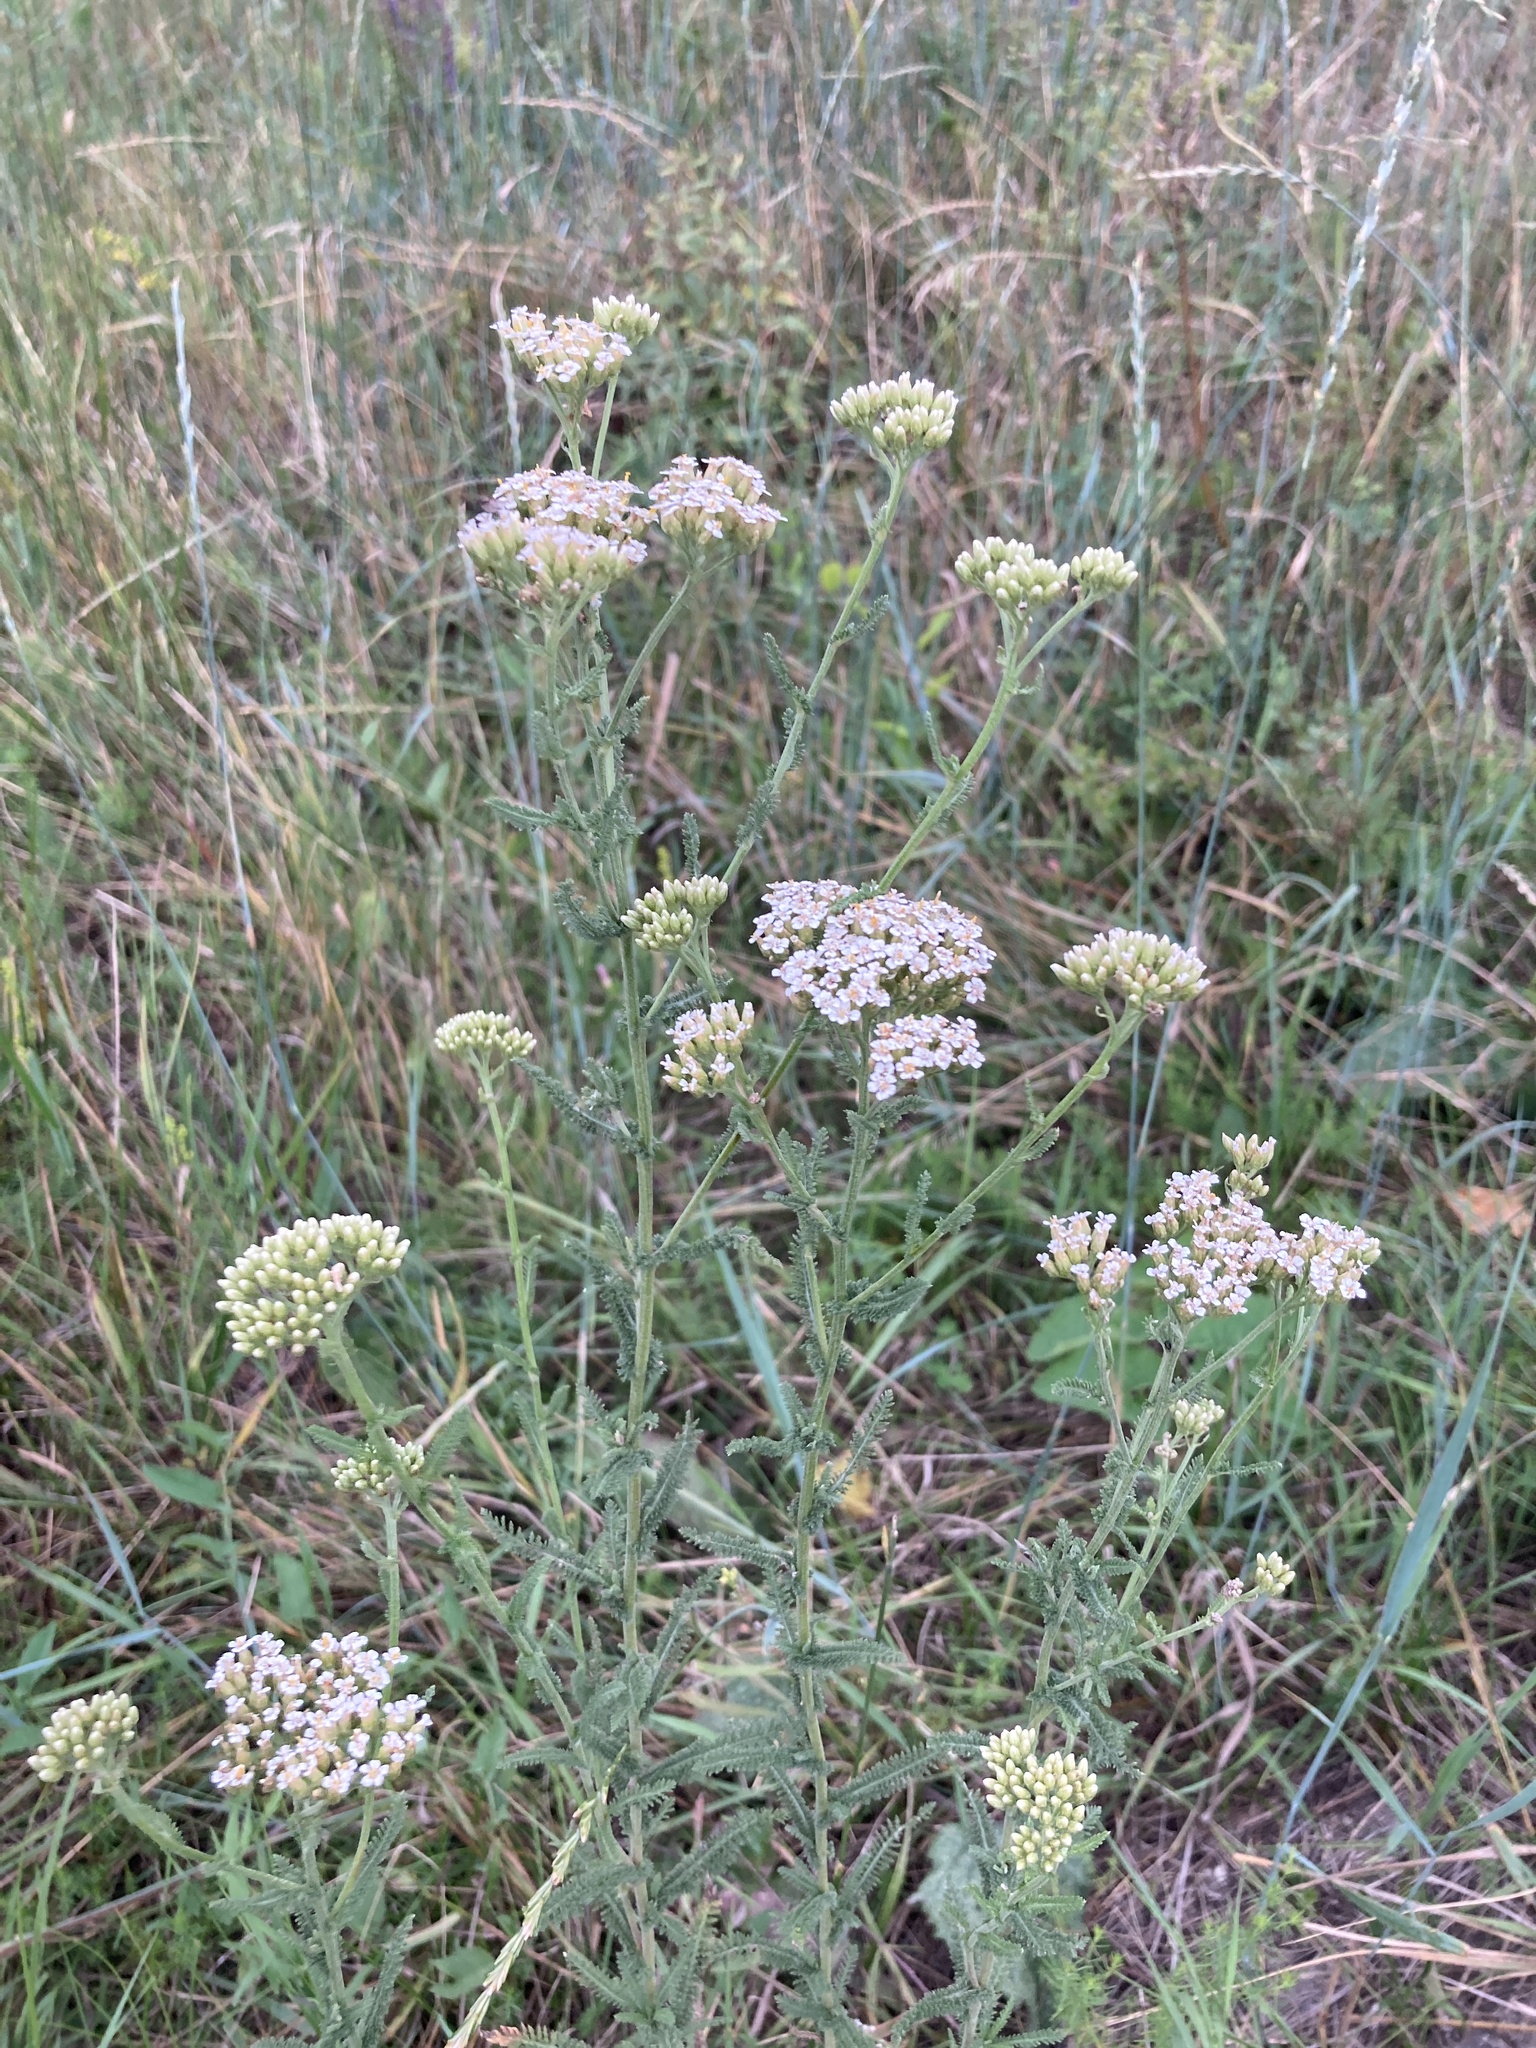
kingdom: Plantae
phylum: Tracheophyta
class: Magnoliopsida
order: Asterales
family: Asteraceae
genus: Achillea
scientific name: Achillea setacea
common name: Bristly yarrow
